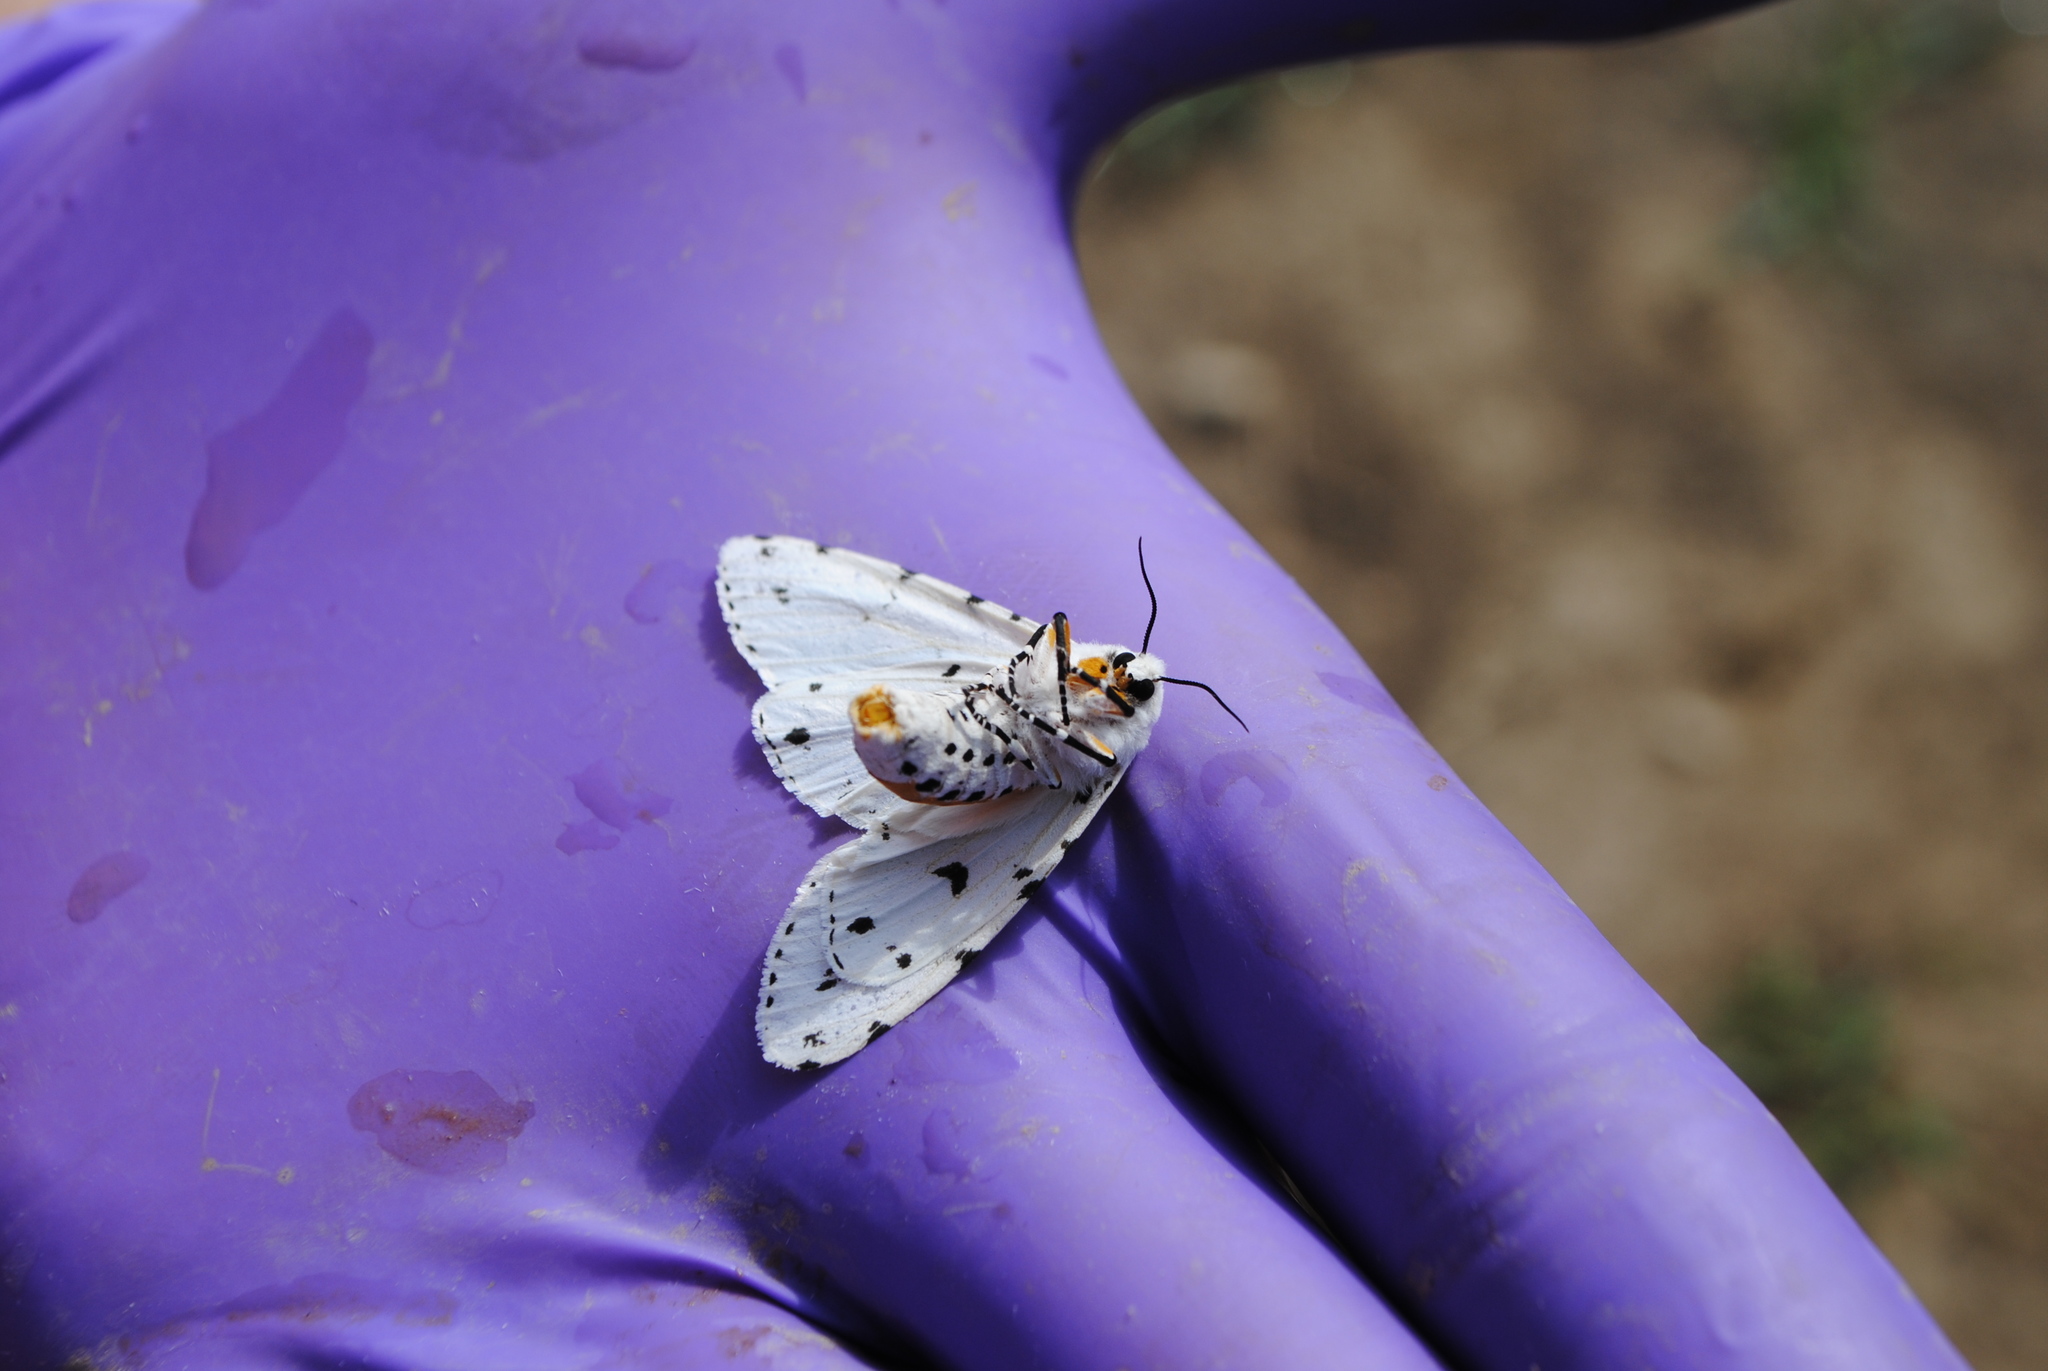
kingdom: Animalia
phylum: Arthropoda
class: Insecta
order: Lepidoptera
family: Erebidae
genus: Estigmene
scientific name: Estigmene acrea
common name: Salt marsh moth
